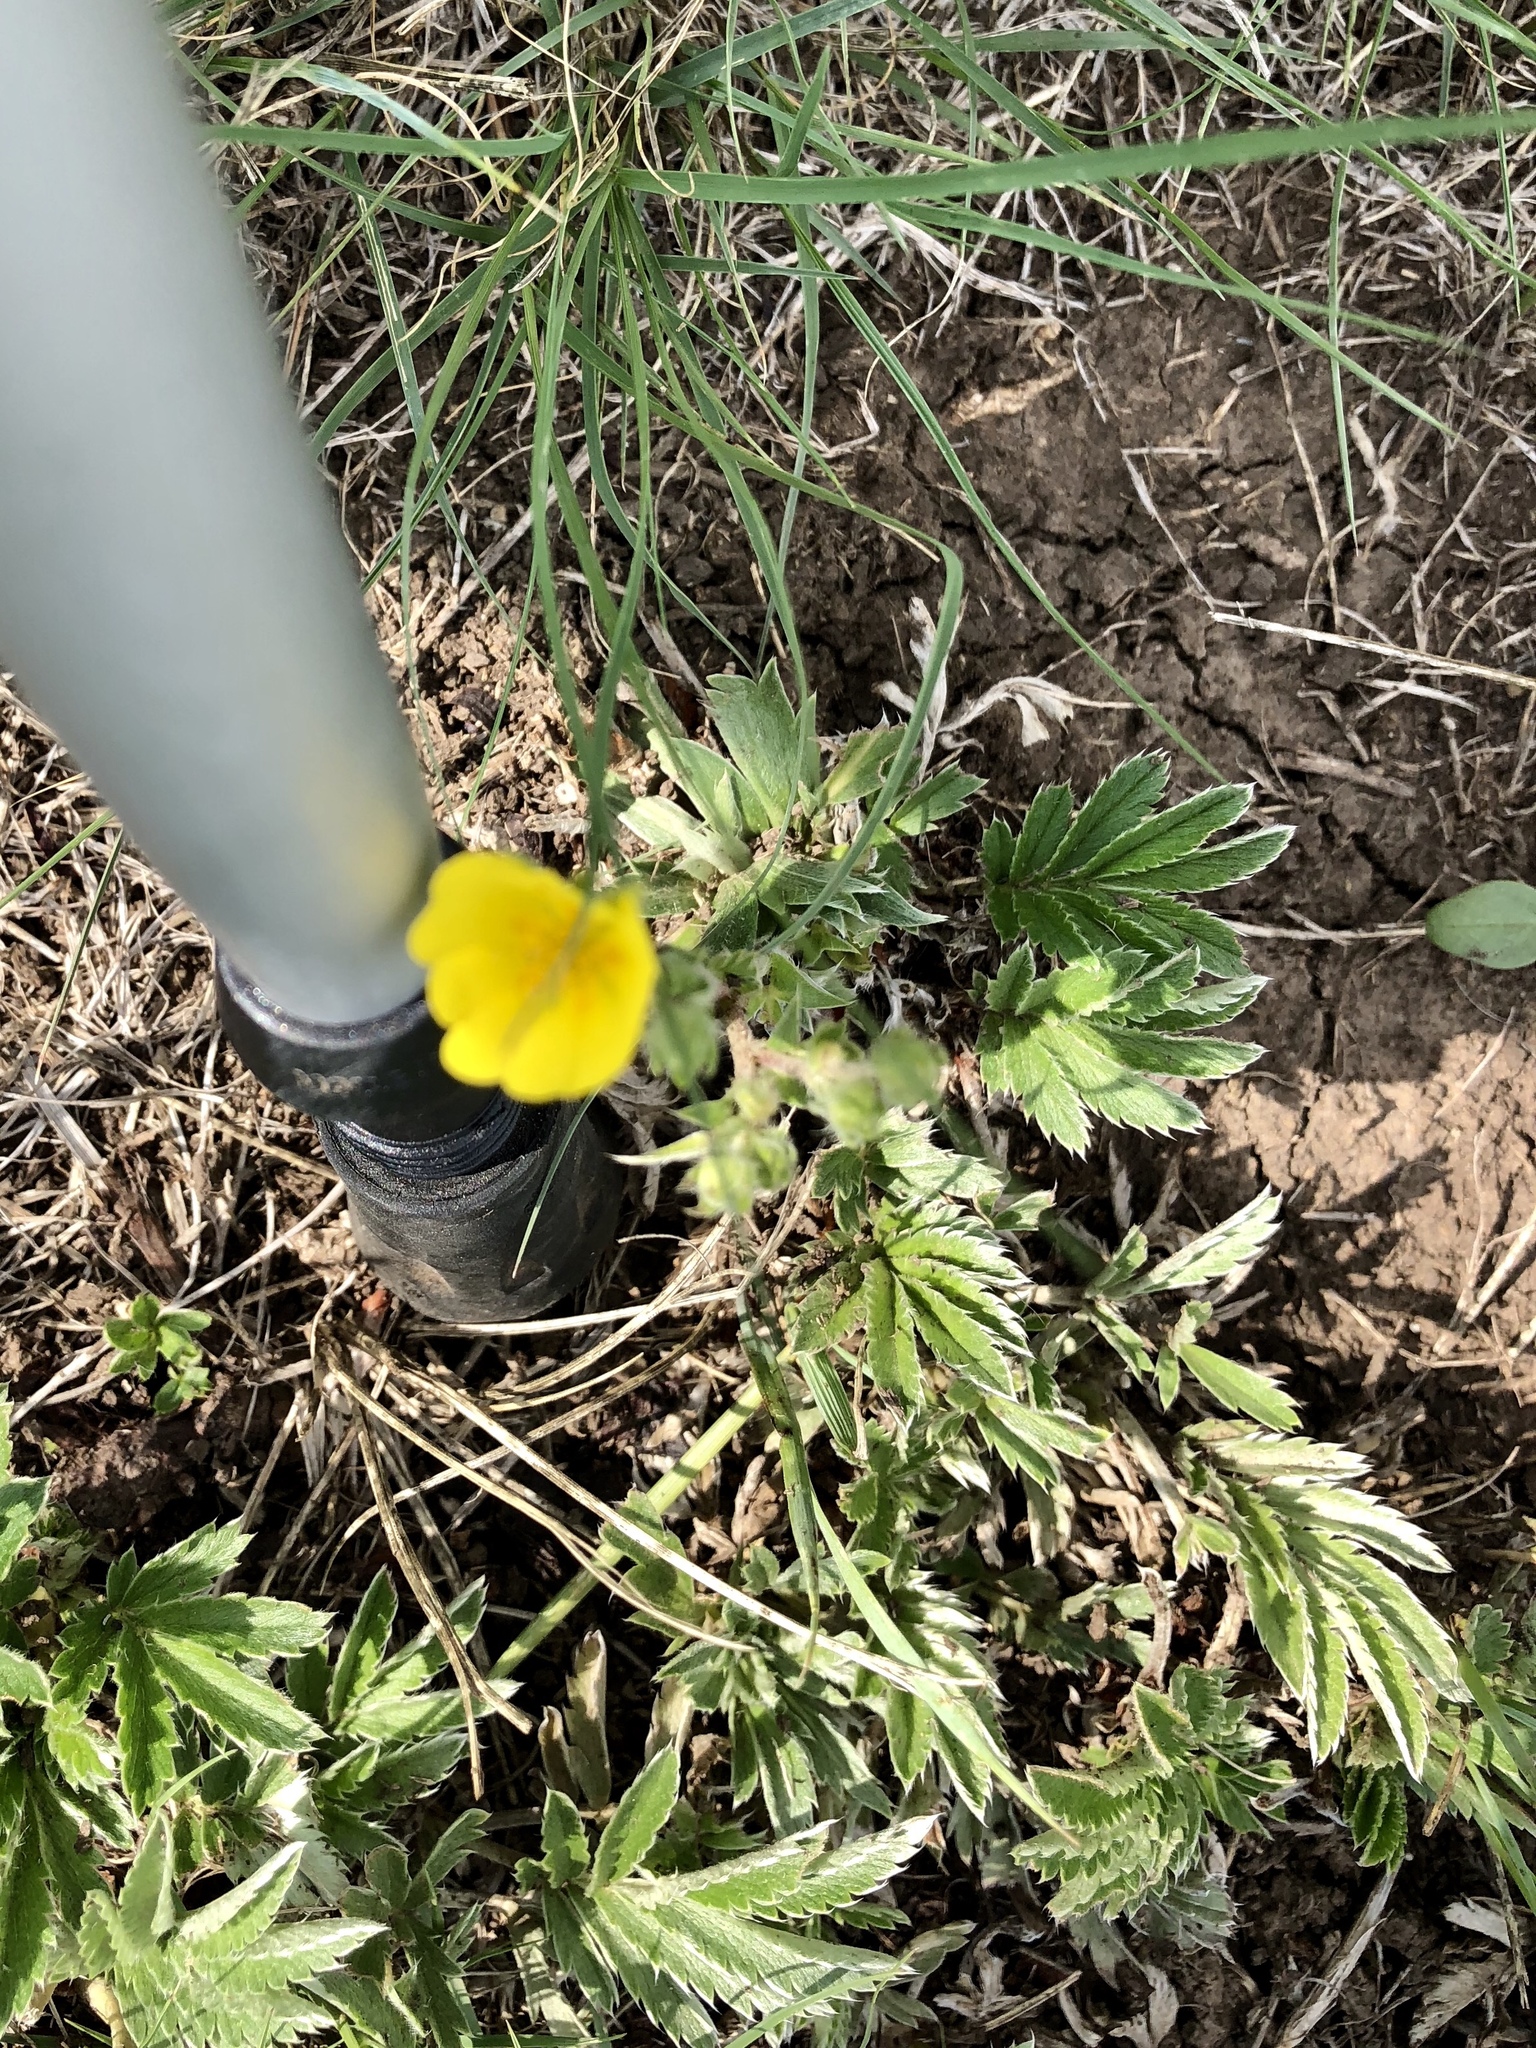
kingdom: Plantae
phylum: Tracheophyta
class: Magnoliopsida
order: Rosales
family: Rosaceae
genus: Potentilla
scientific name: Potentilla hippiana
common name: Woolly cinquefoil
